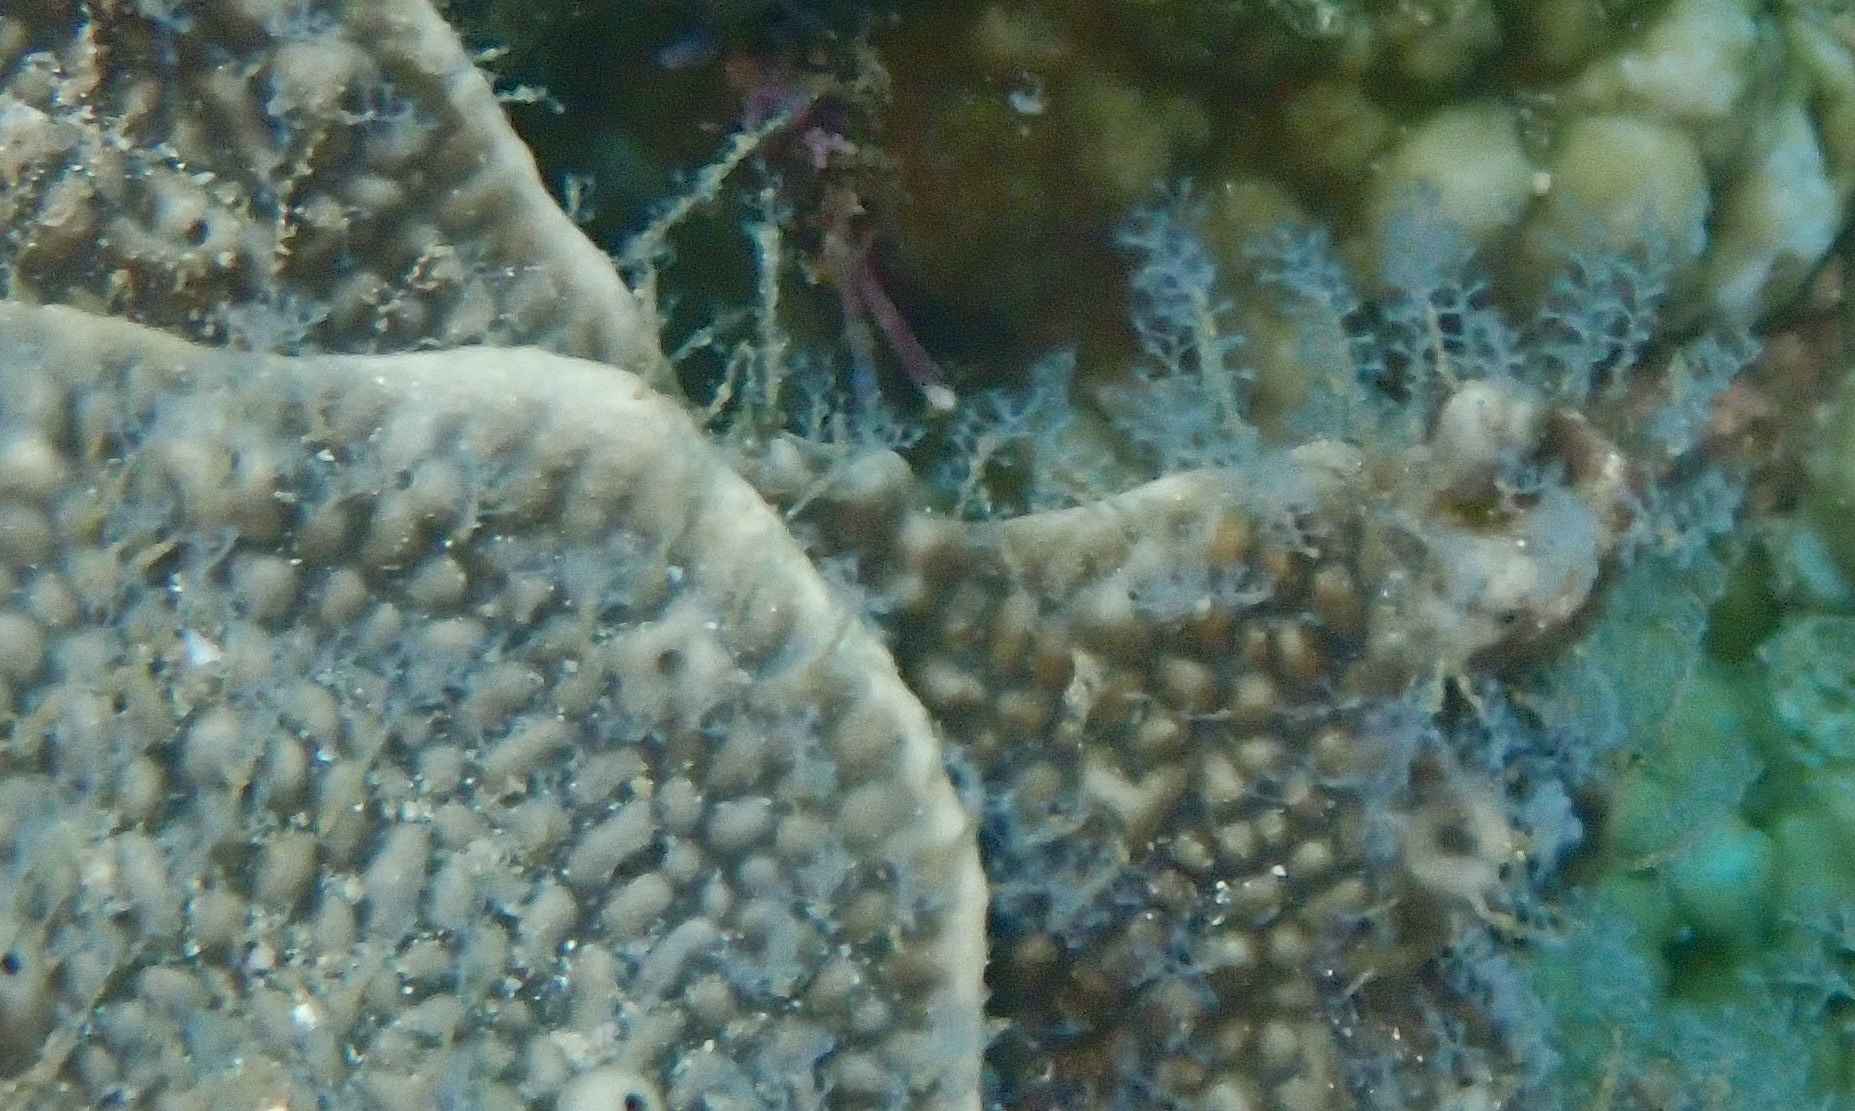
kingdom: Animalia
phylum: Cnidaria
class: Hydrozoa
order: Leptothecata
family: Haleciidae
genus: Nemalecium
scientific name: Nemalecium lighti
